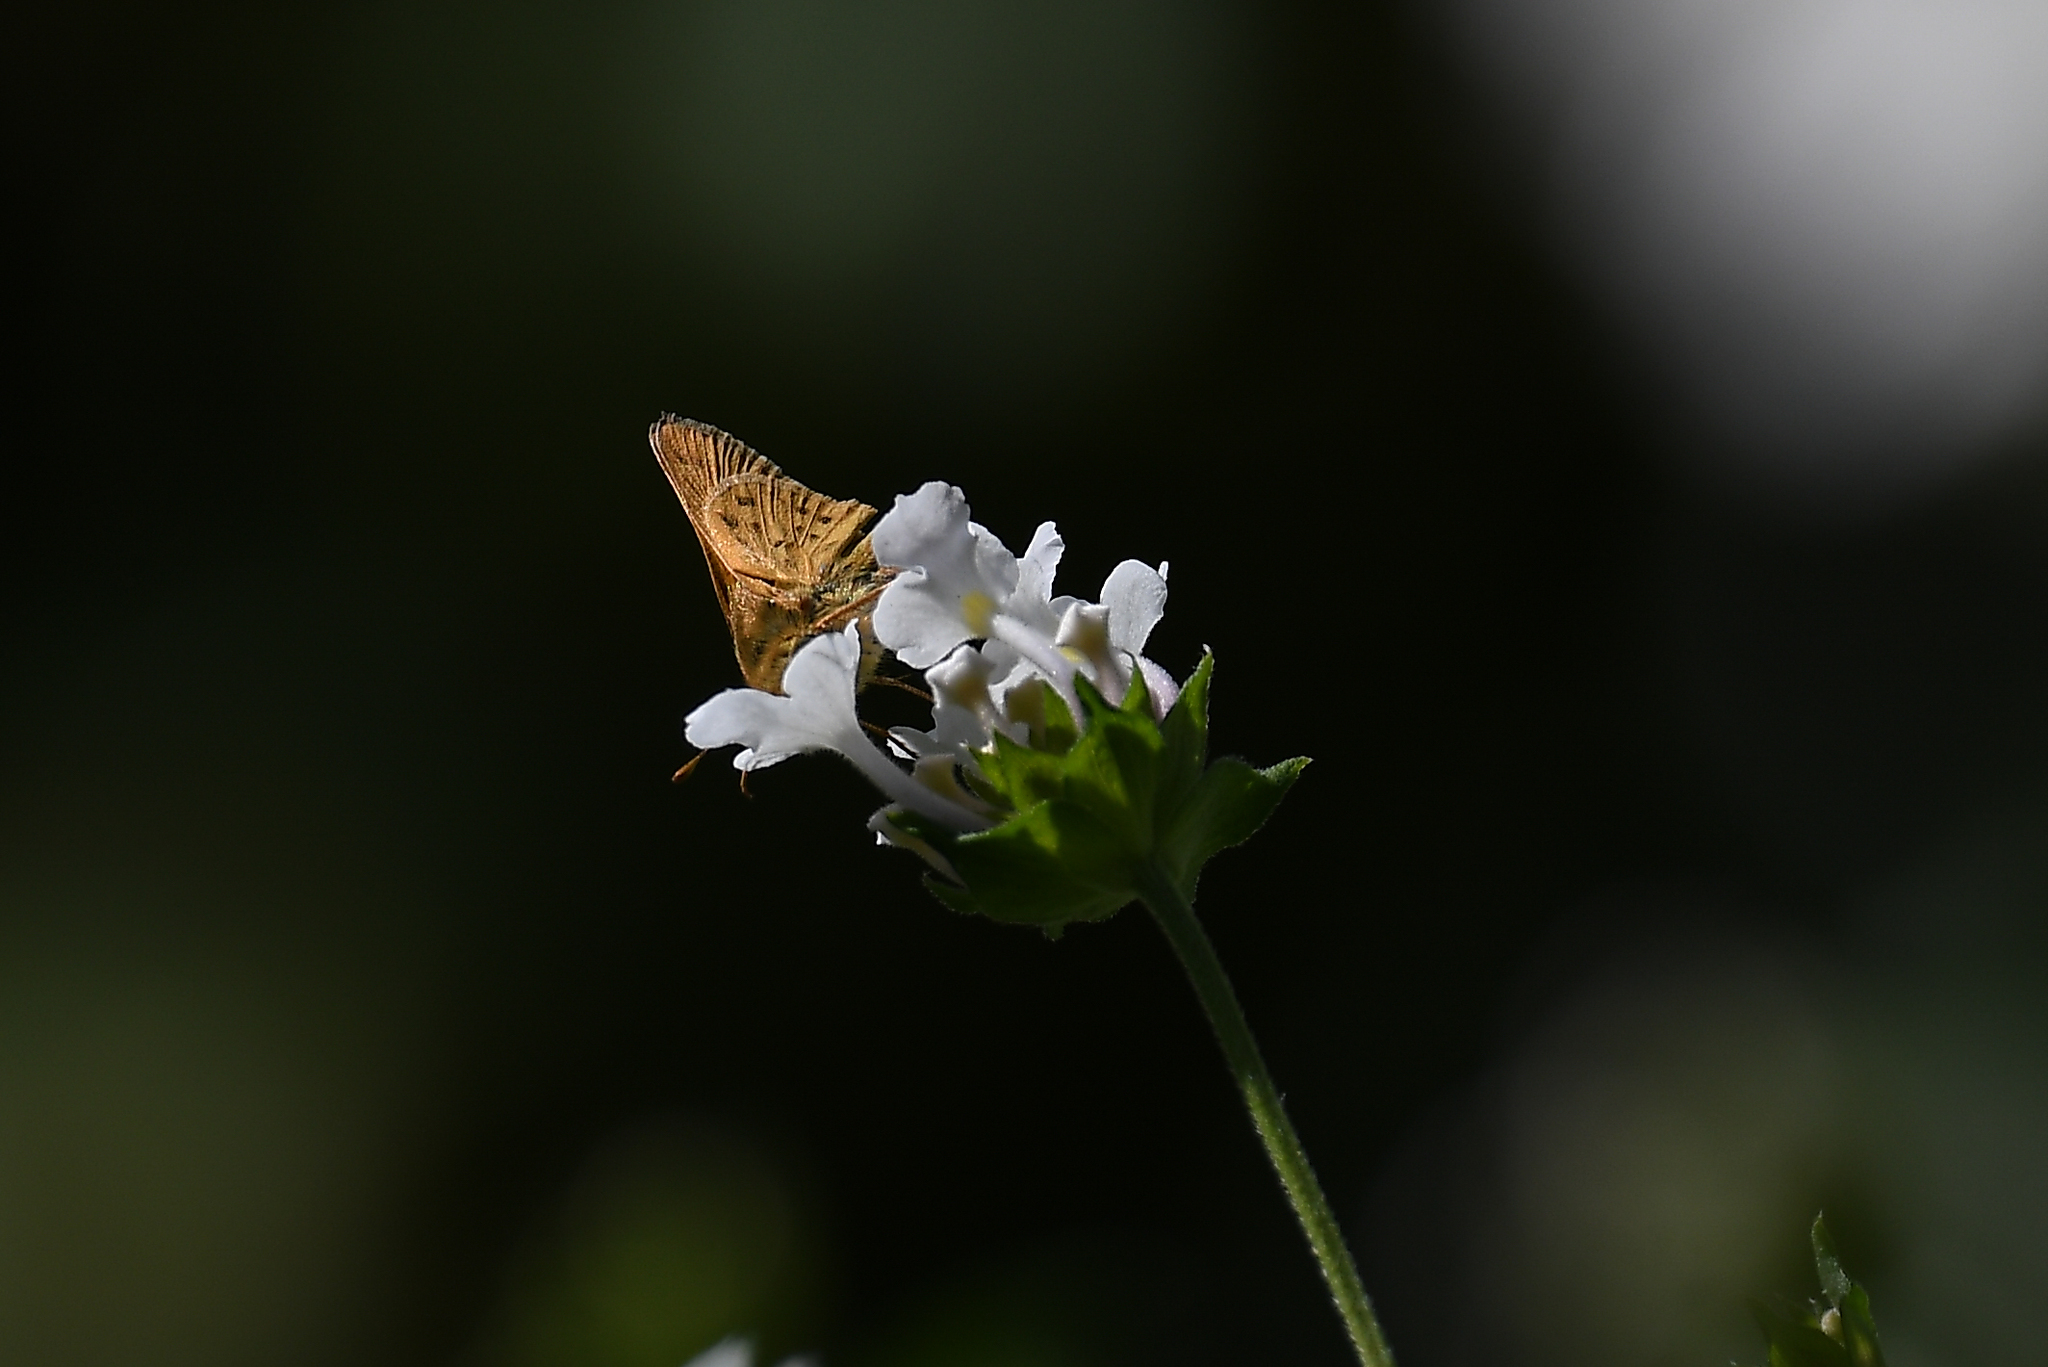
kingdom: Animalia
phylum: Arthropoda
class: Insecta
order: Lepidoptera
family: Hesperiidae
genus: Hylephila
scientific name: Hylephila phyleus
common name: Fiery skipper
